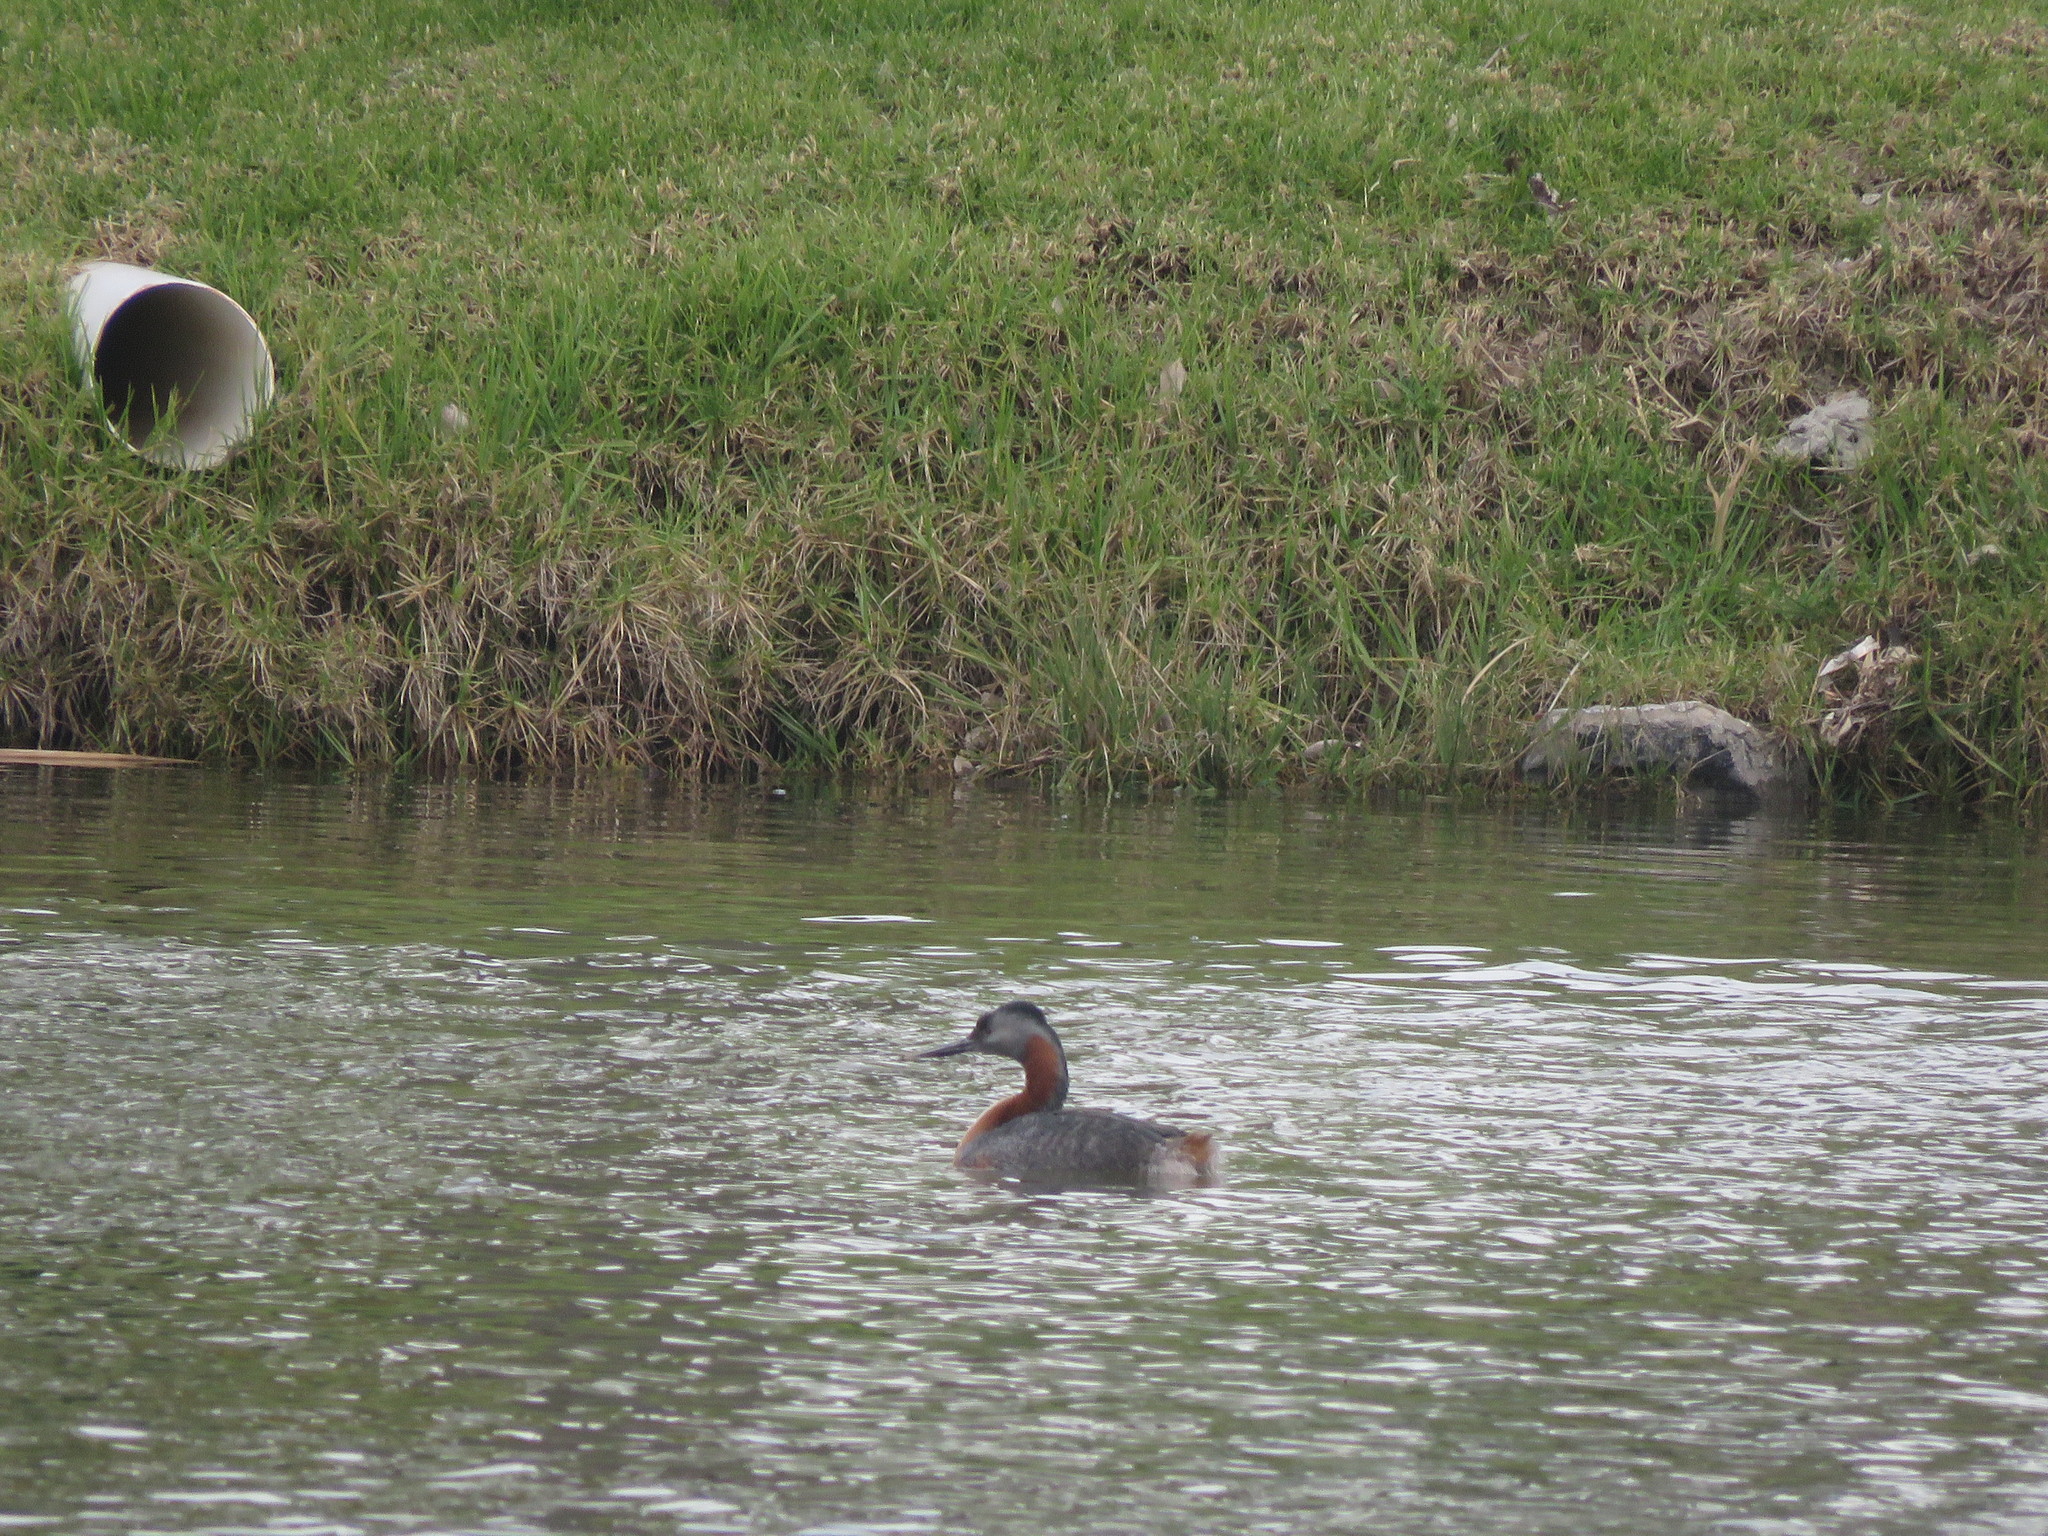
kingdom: Animalia
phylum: Chordata
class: Aves
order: Podicipediformes
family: Podicipedidae
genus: Podiceps
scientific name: Podiceps major
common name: Great grebe
